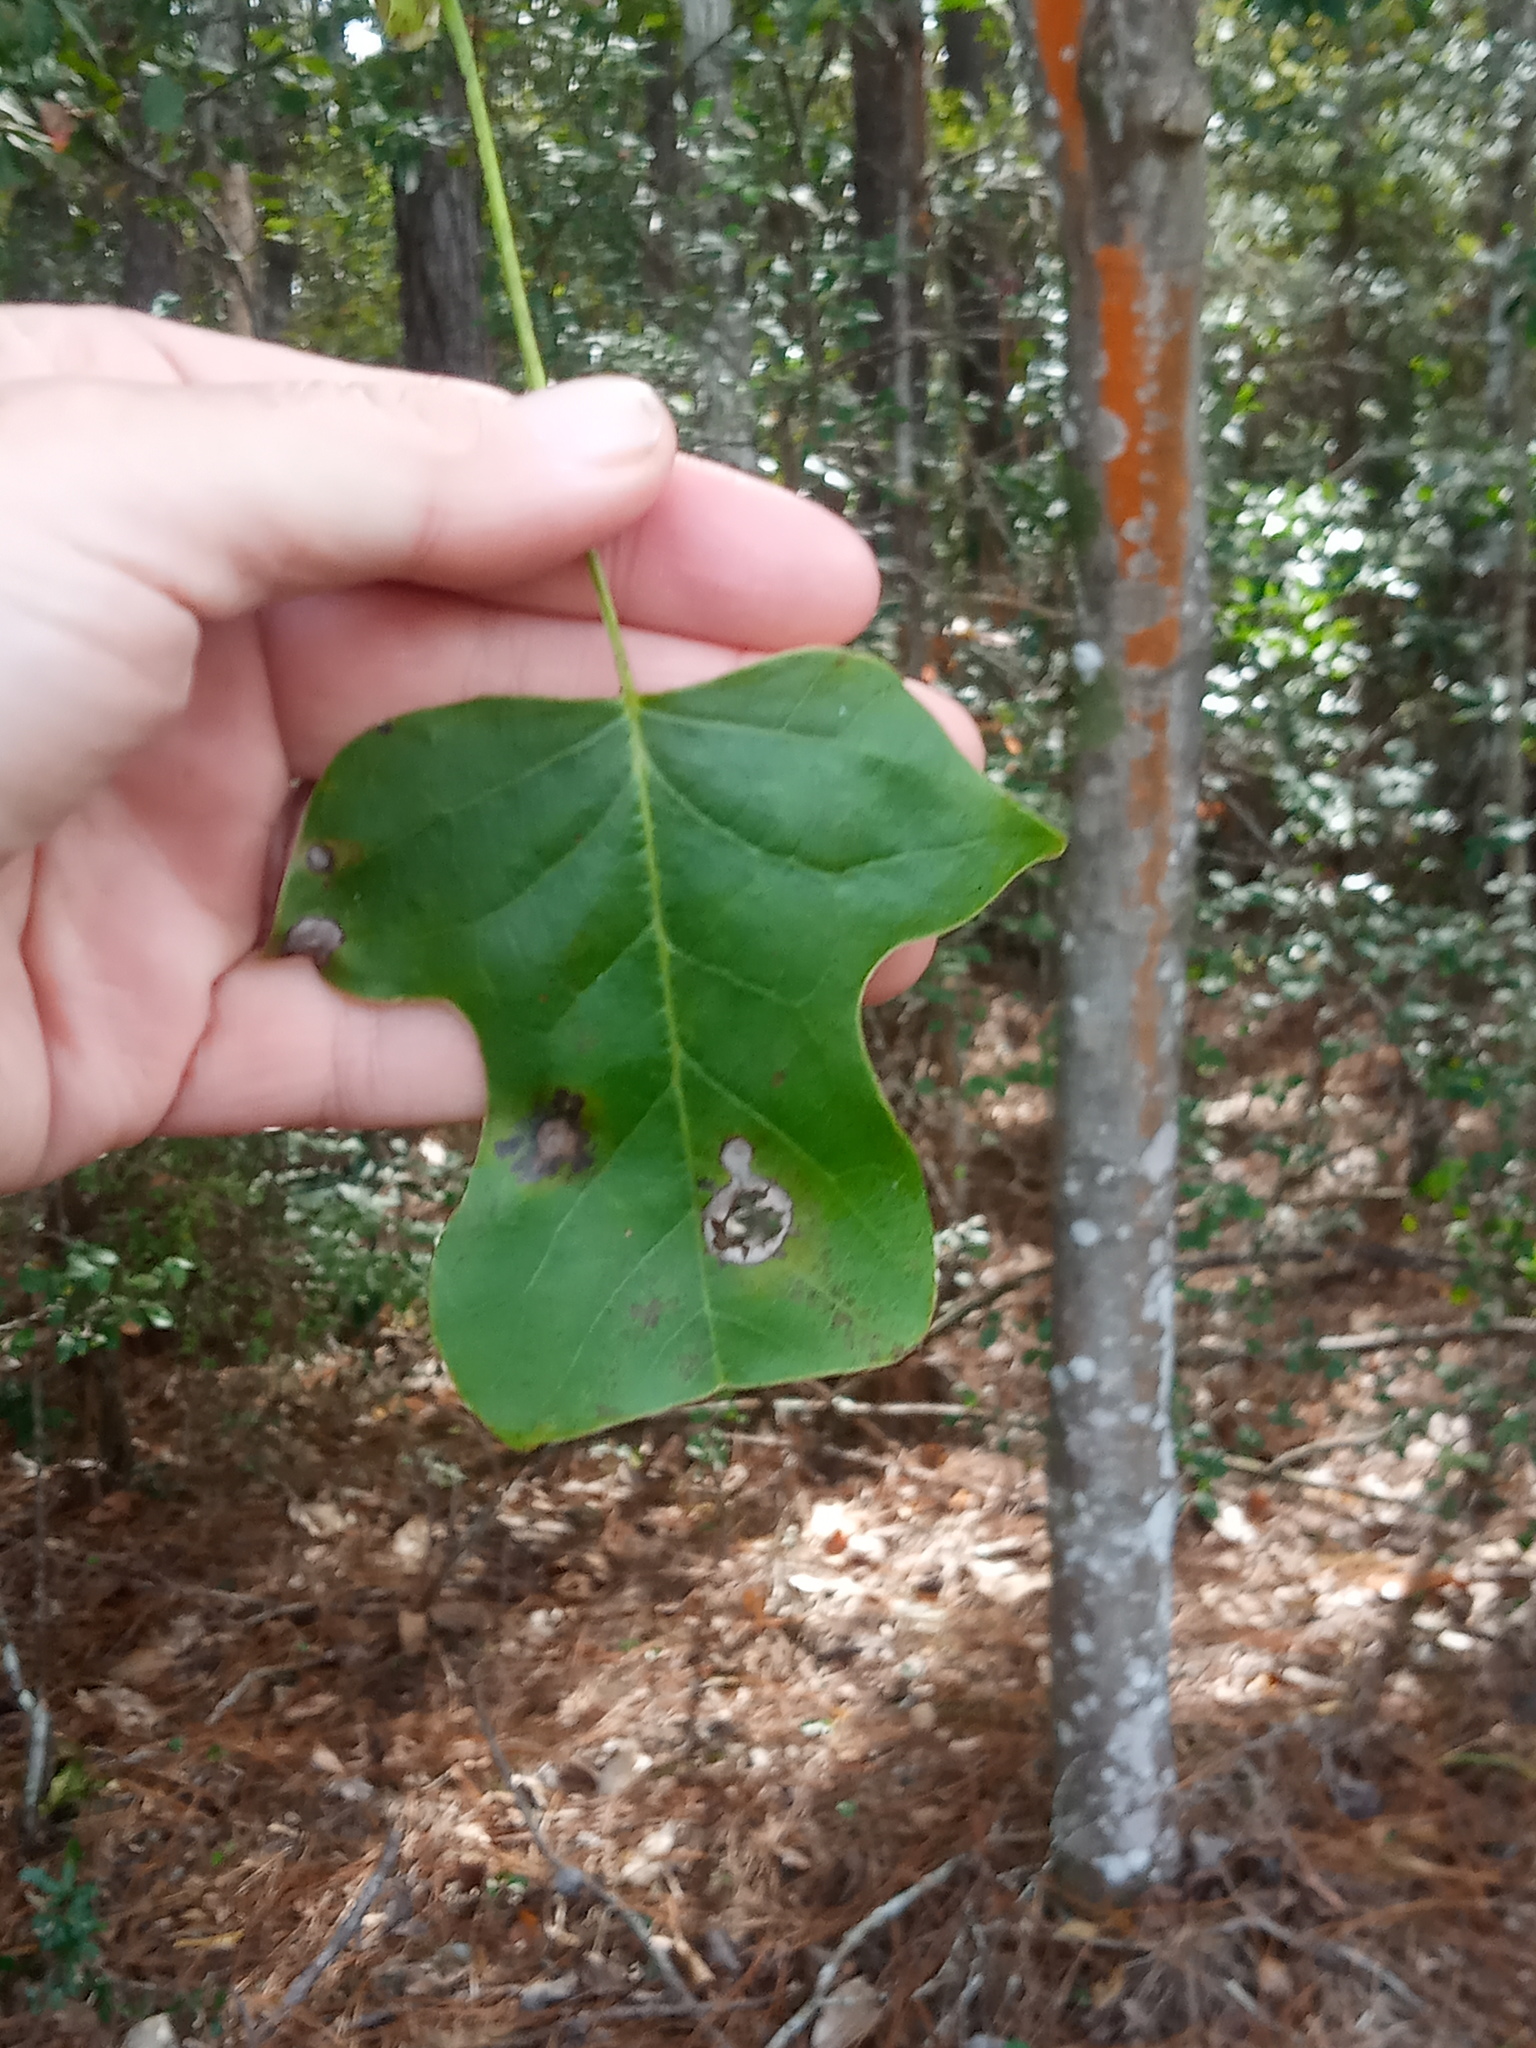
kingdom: Plantae
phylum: Tracheophyta
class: Magnoliopsida
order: Magnoliales
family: Magnoliaceae
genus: Liriodendron
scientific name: Liriodendron tulipifera
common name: Tulip tree
